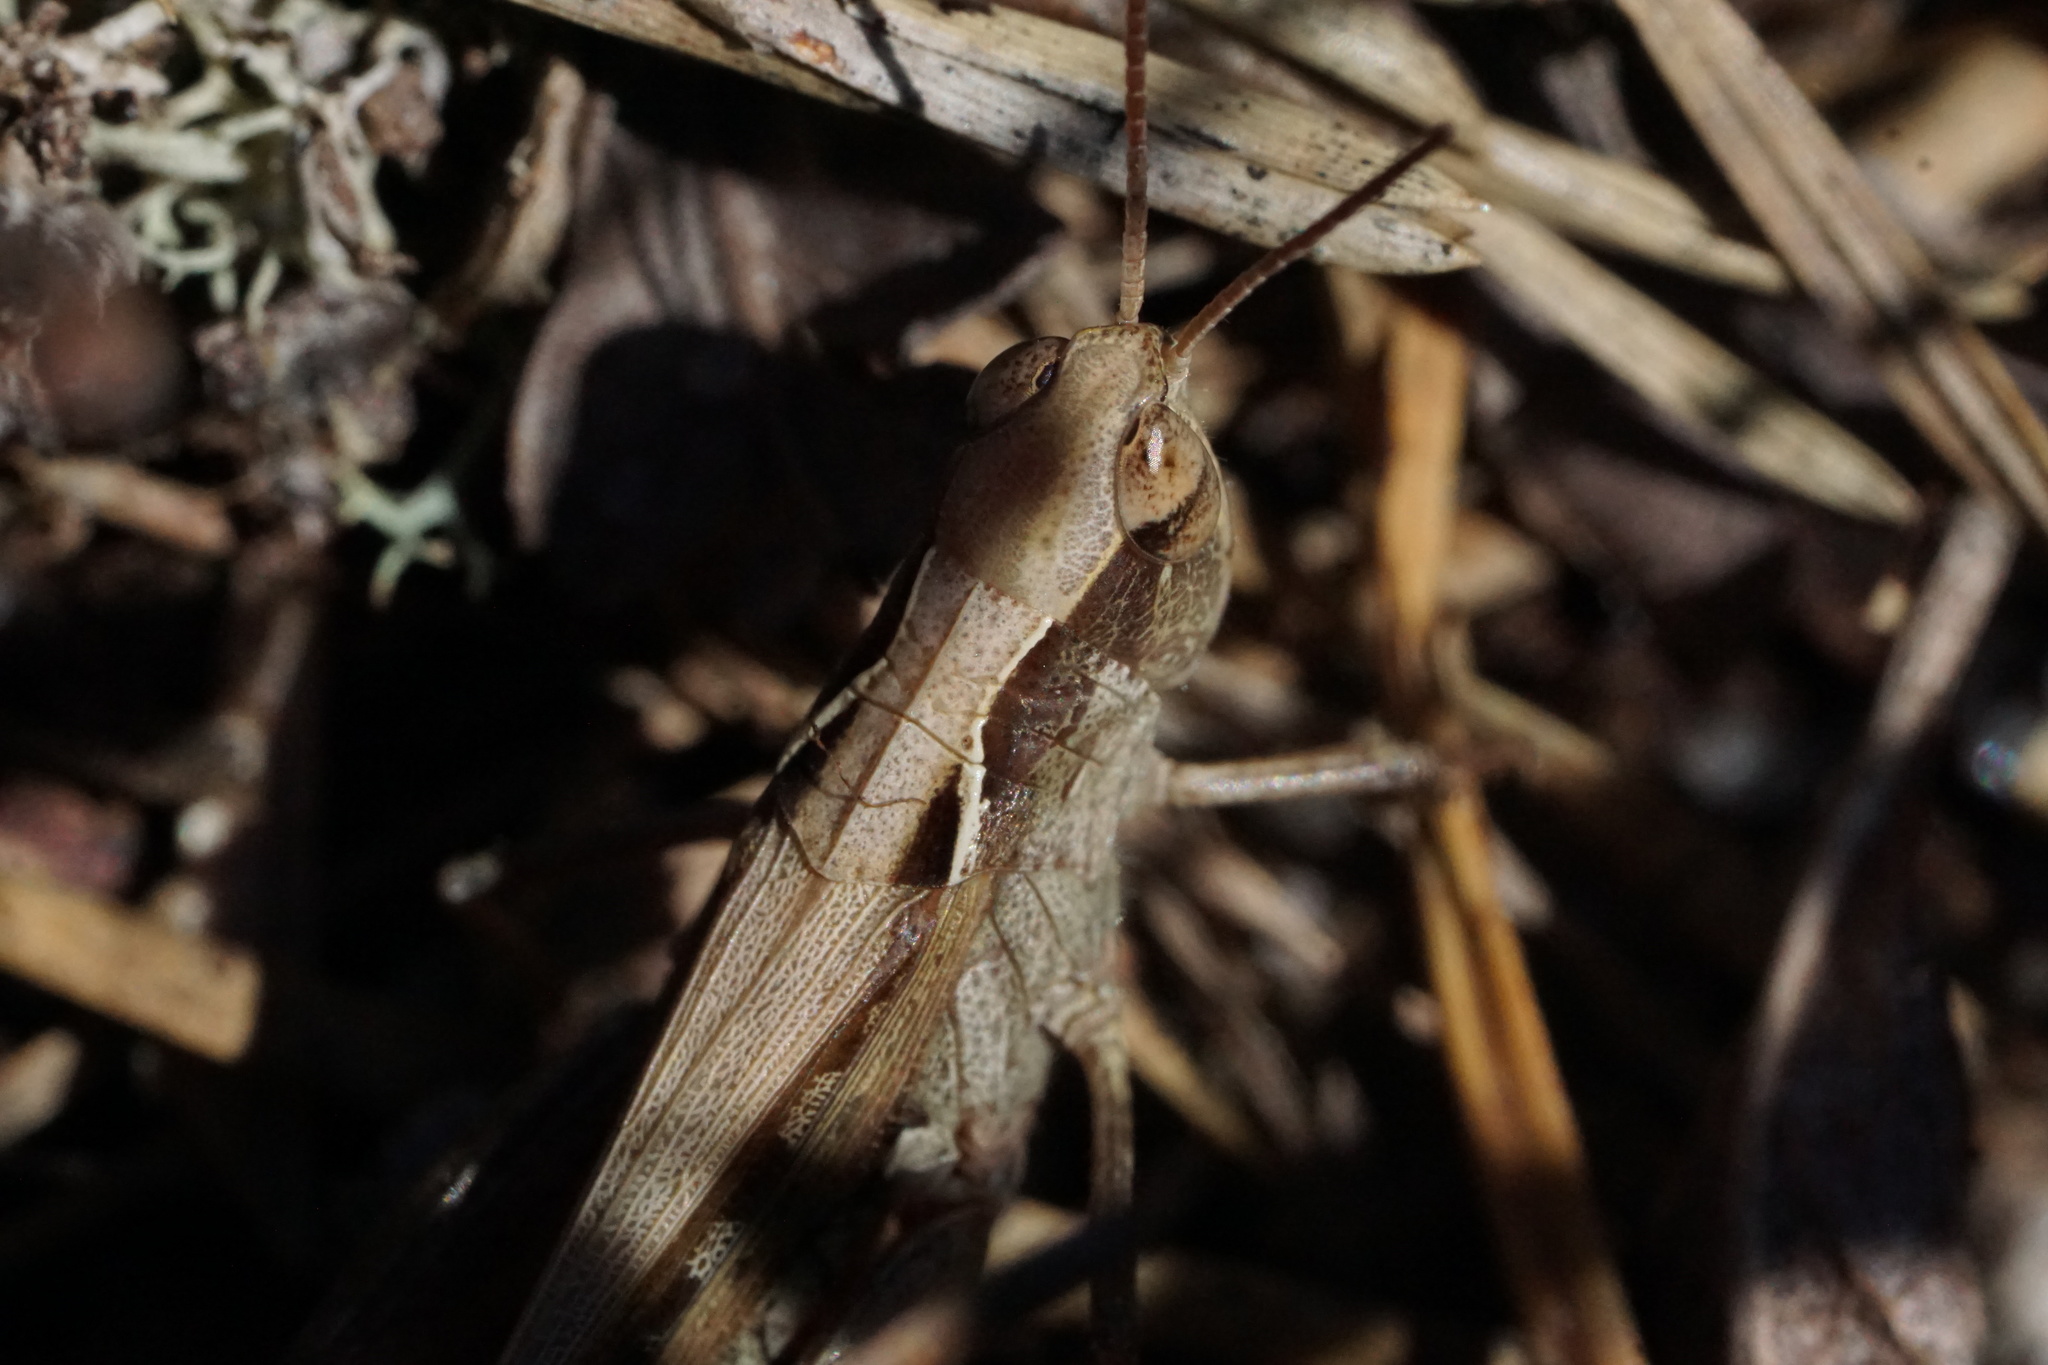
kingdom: Animalia
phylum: Arthropoda
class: Insecta
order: Orthoptera
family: Acrididae
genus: Orphulella
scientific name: Orphulella pelidna
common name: Spotted-wing grasshopper
